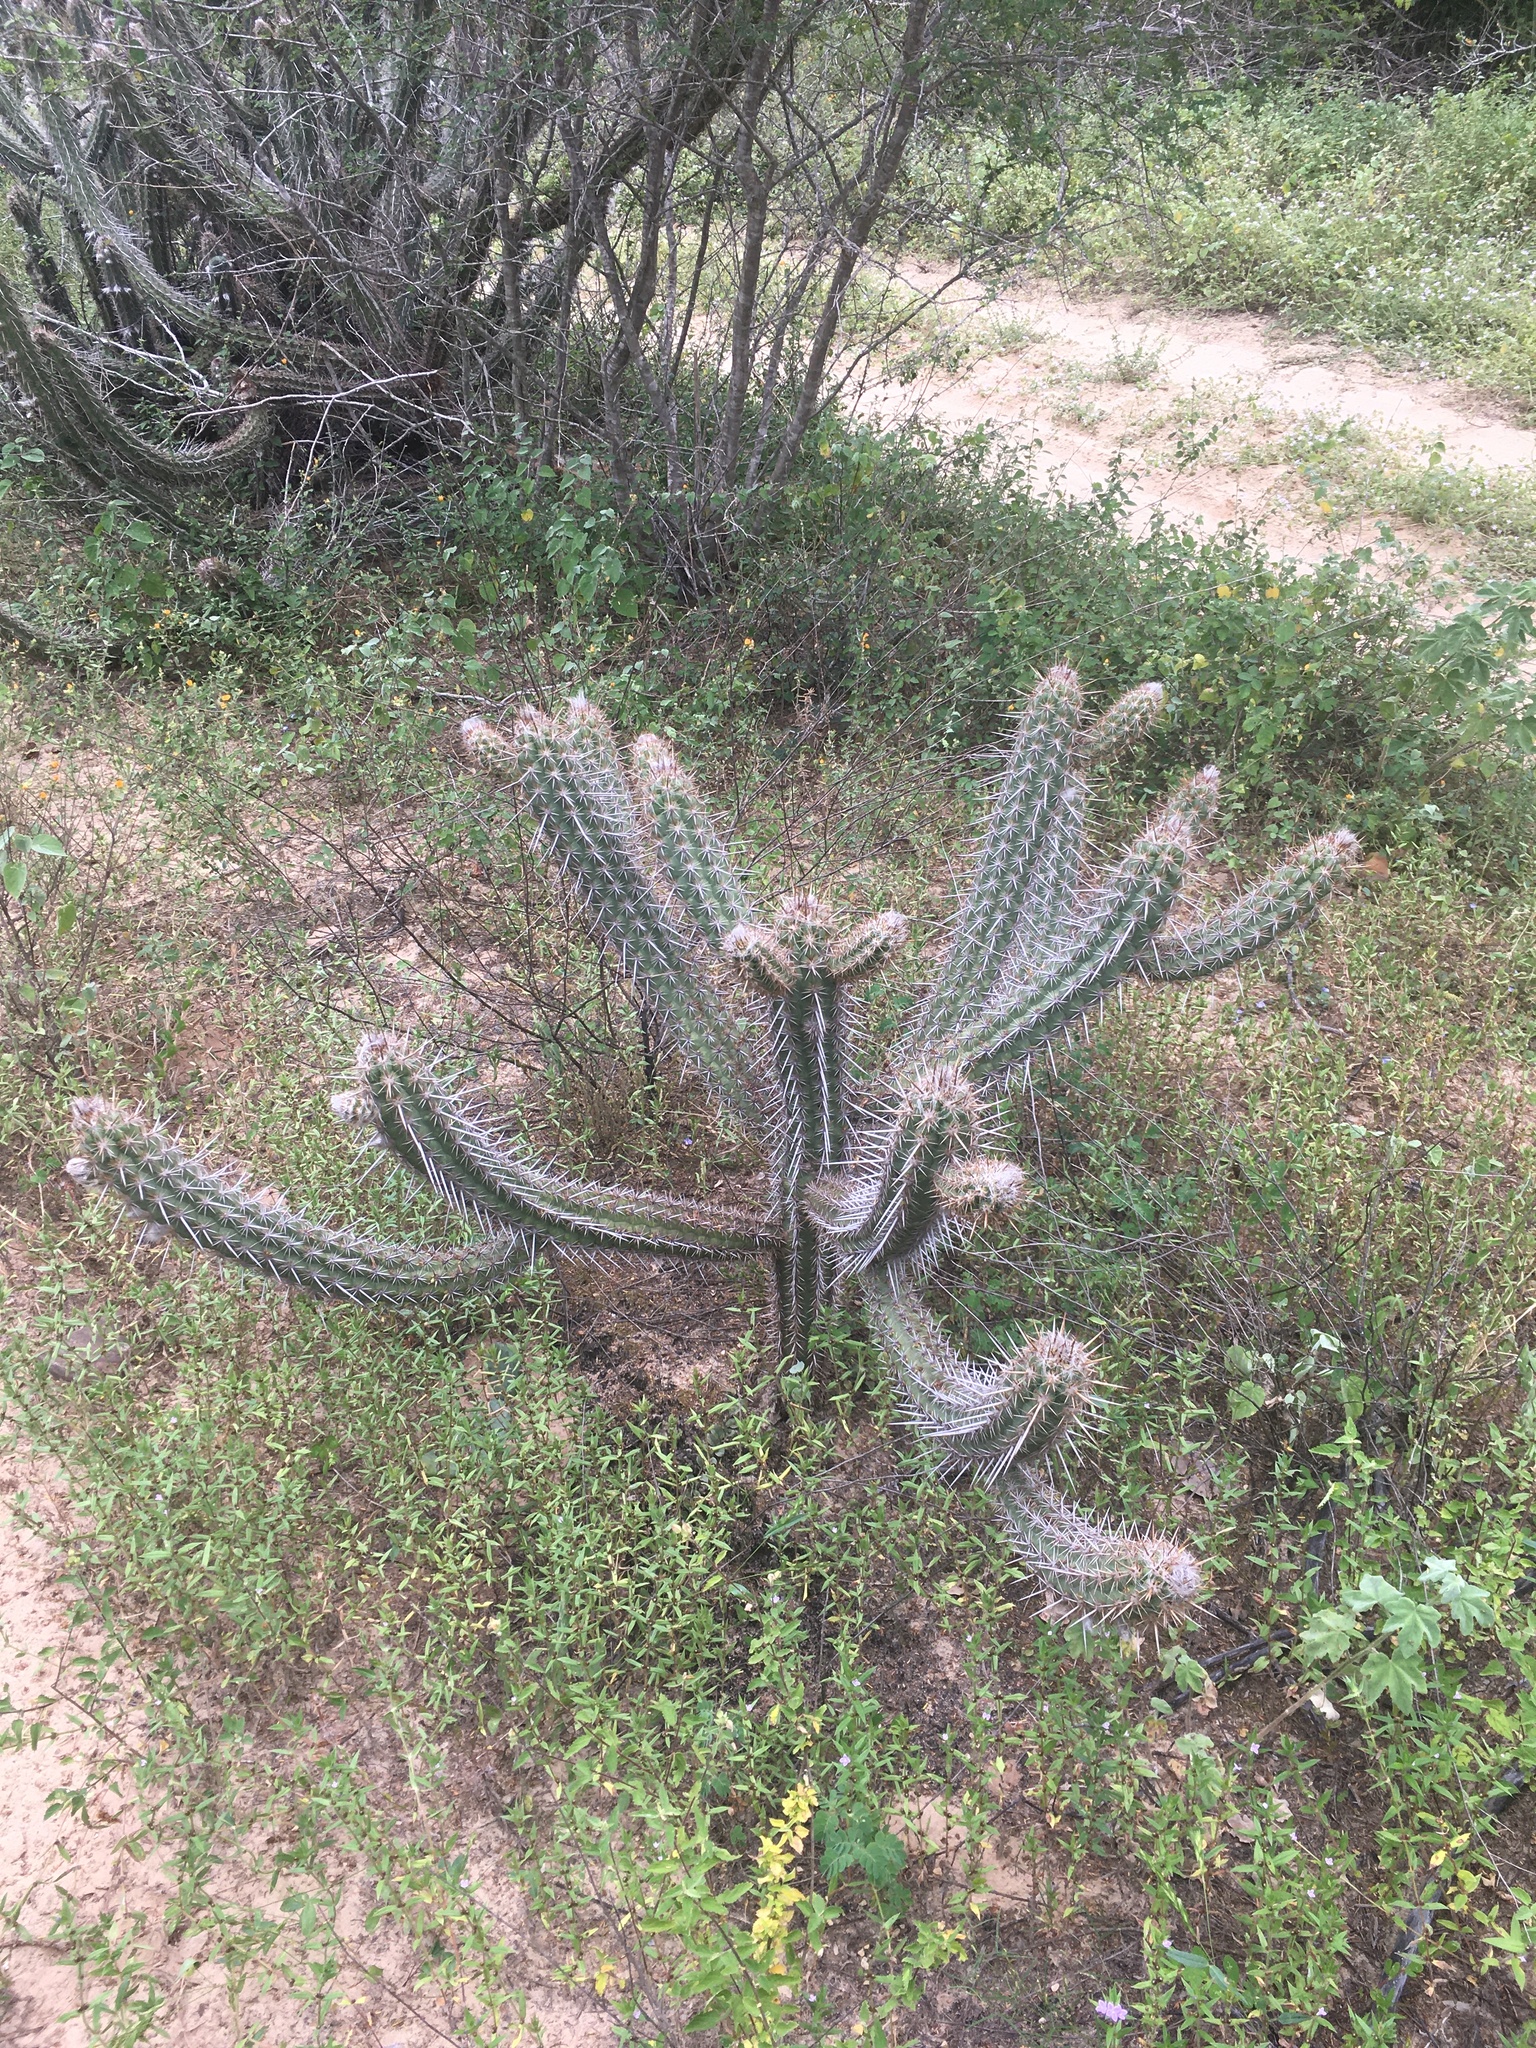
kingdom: Plantae
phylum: Tracheophyta
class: Magnoliopsida
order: Caryophyllales
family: Cactaceae
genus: Xiquexique
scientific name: Xiquexique gounellei
